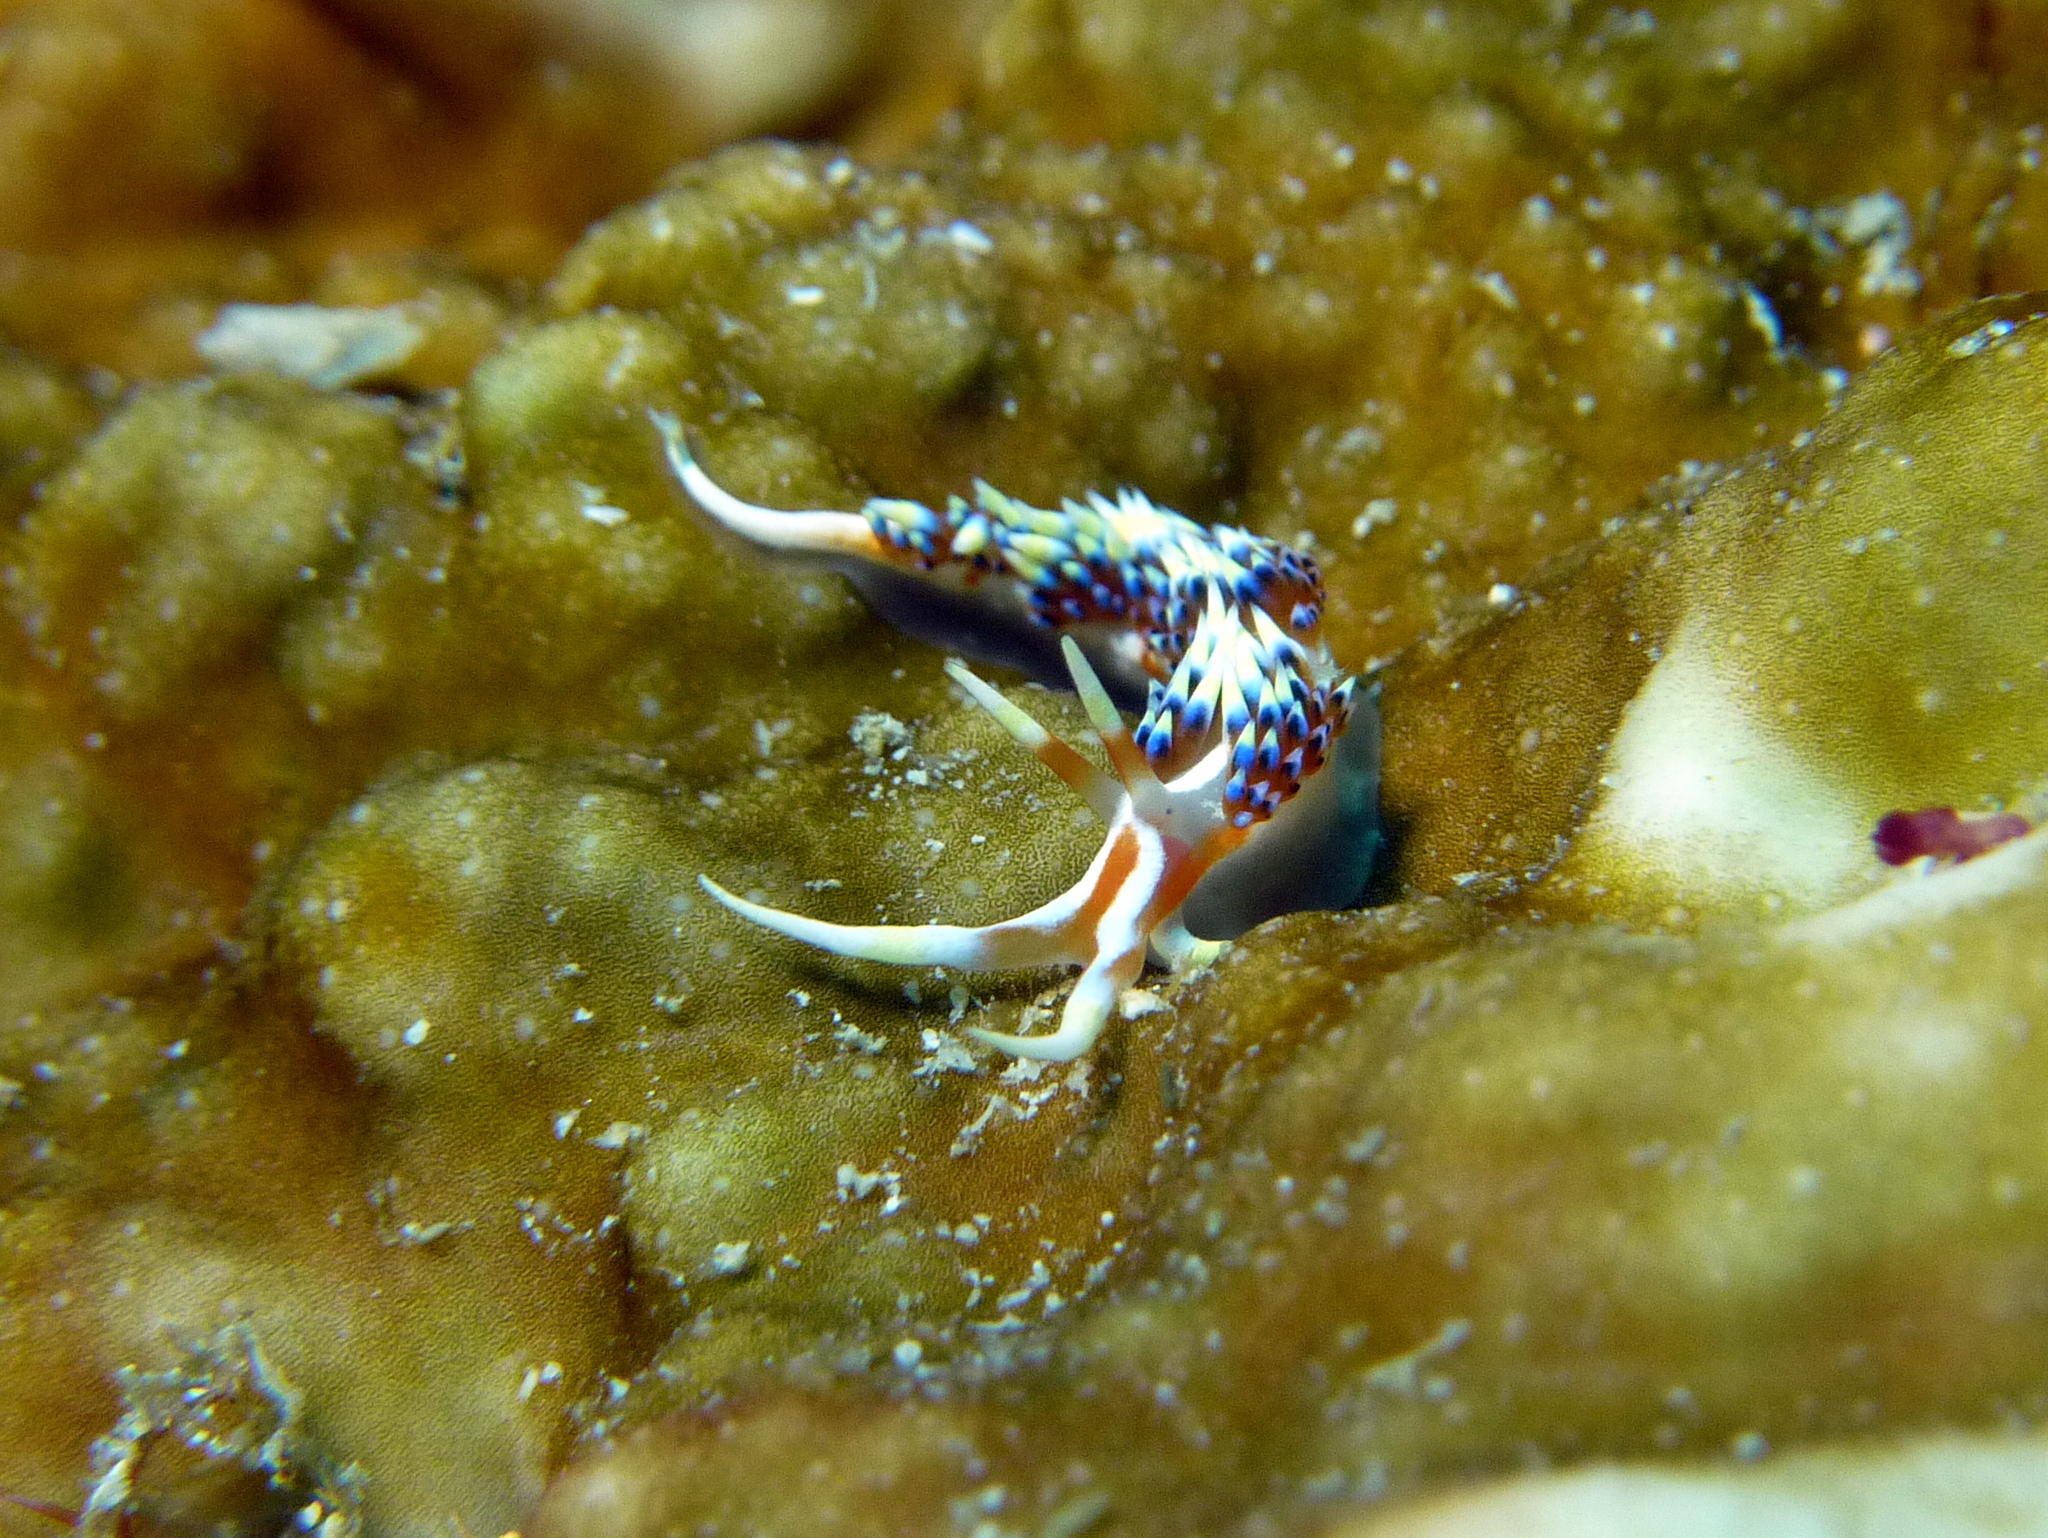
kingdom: Animalia
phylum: Mollusca
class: Gastropoda
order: Nudibranchia
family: Facelinidae
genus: Caloria
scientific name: Caloria indica
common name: Sea slug
